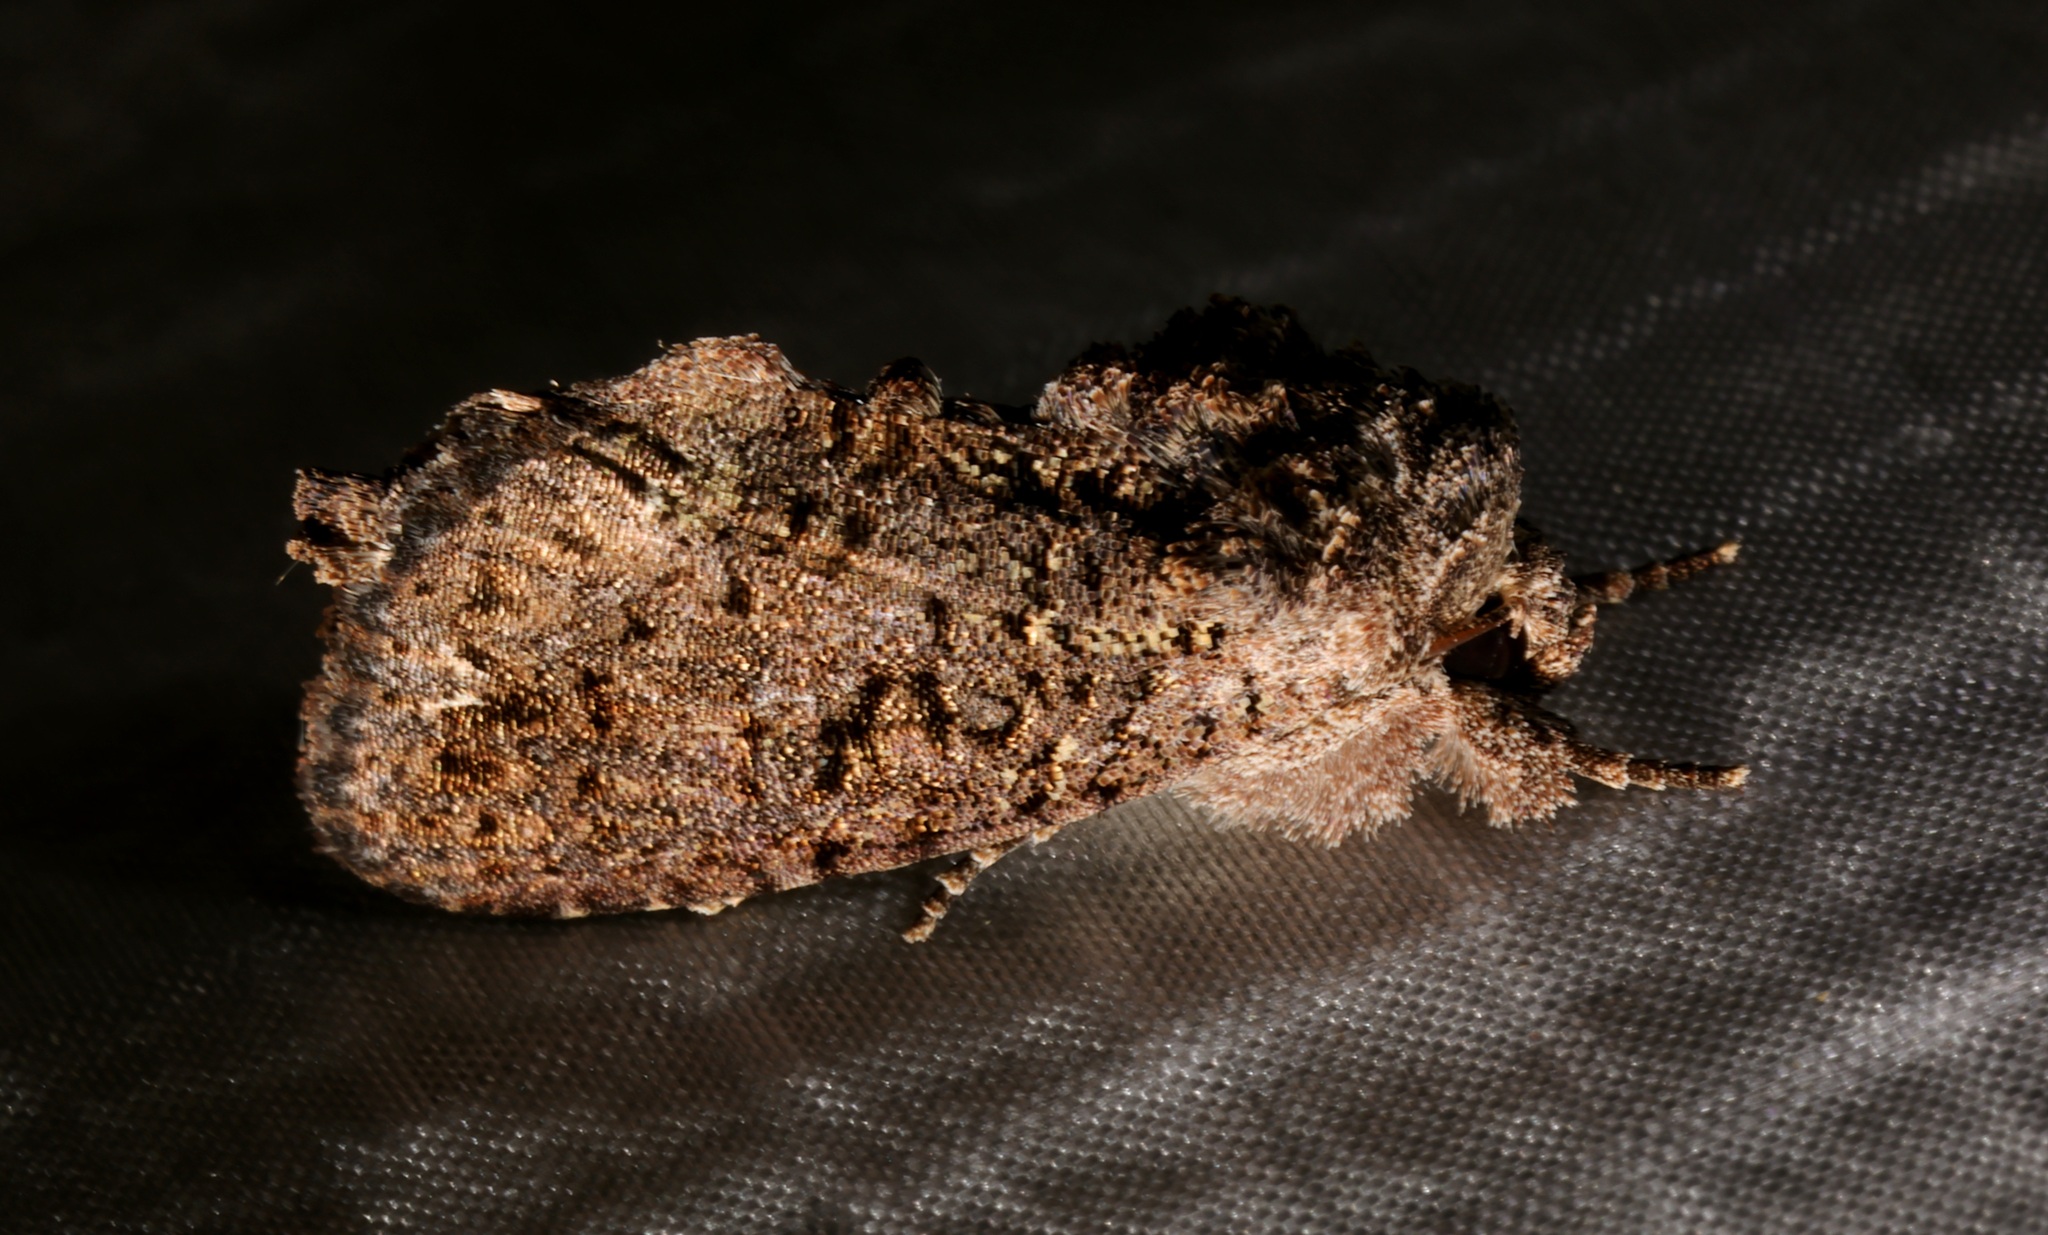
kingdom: Animalia
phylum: Arthropoda
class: Insecta
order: Lepidoptera
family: Noctuidae
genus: Paradiopa
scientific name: Paradiopa postfusca
